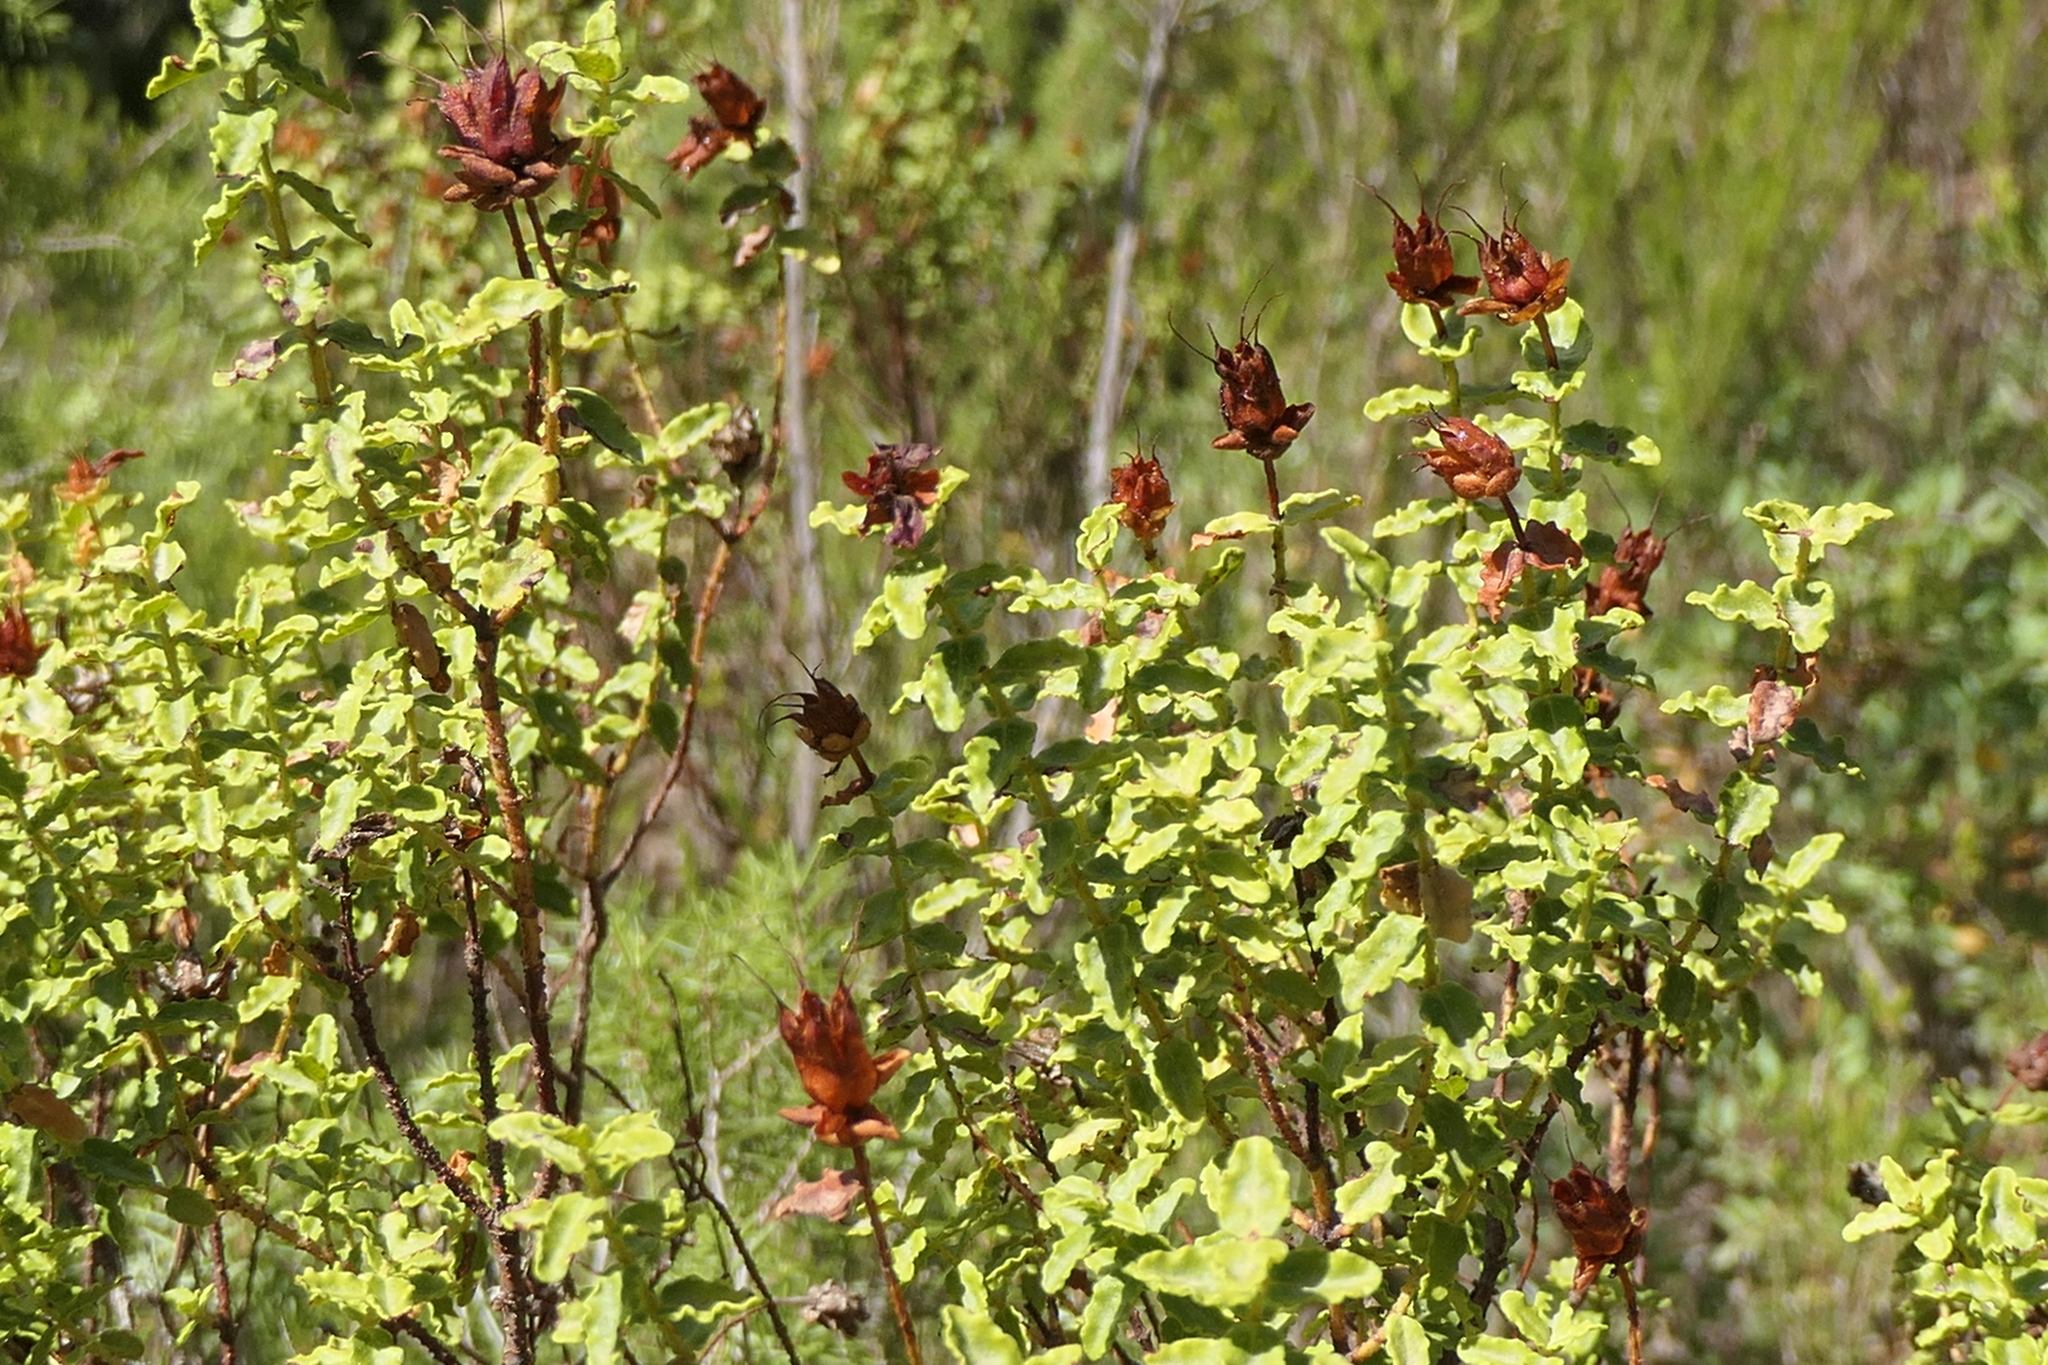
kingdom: Plantae
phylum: Tracheophyta
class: Magnoliopsida
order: Malpighiales
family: Hypericaceae
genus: Hypericum
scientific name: Hypericum balearicum
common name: Majorca st john's wort
